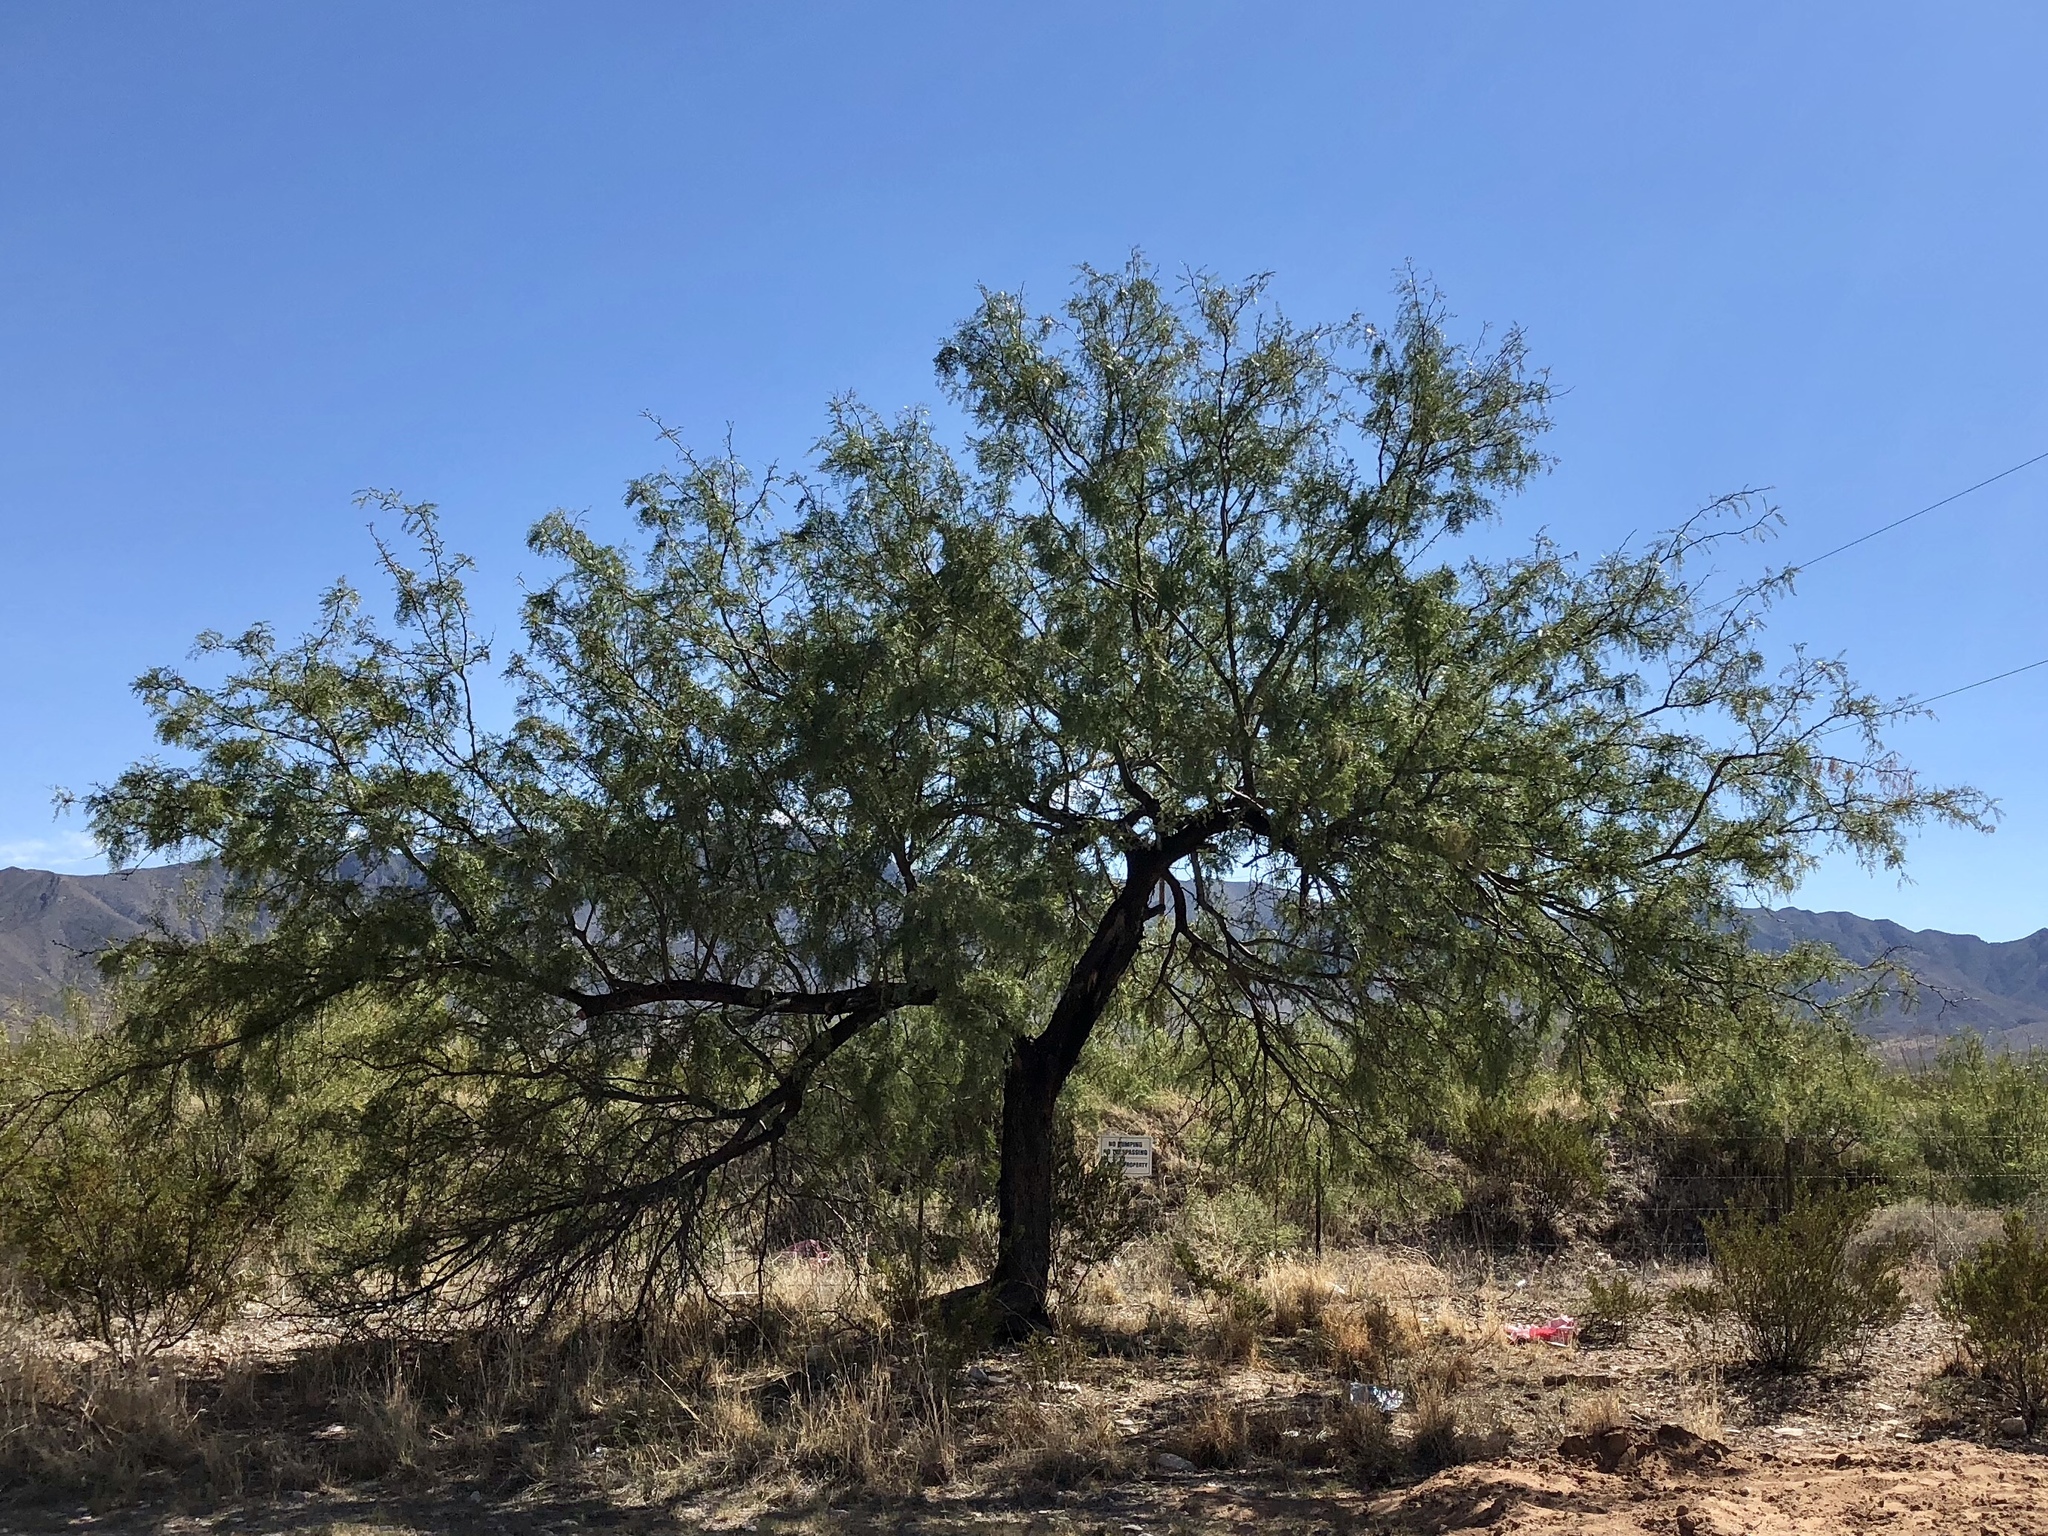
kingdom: Plantae
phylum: Tracheophyta
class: Magnoliopsida
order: Fabales
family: Fabaceae
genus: Prosopis
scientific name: Prosopis glandulosa
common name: Honey mesquite
